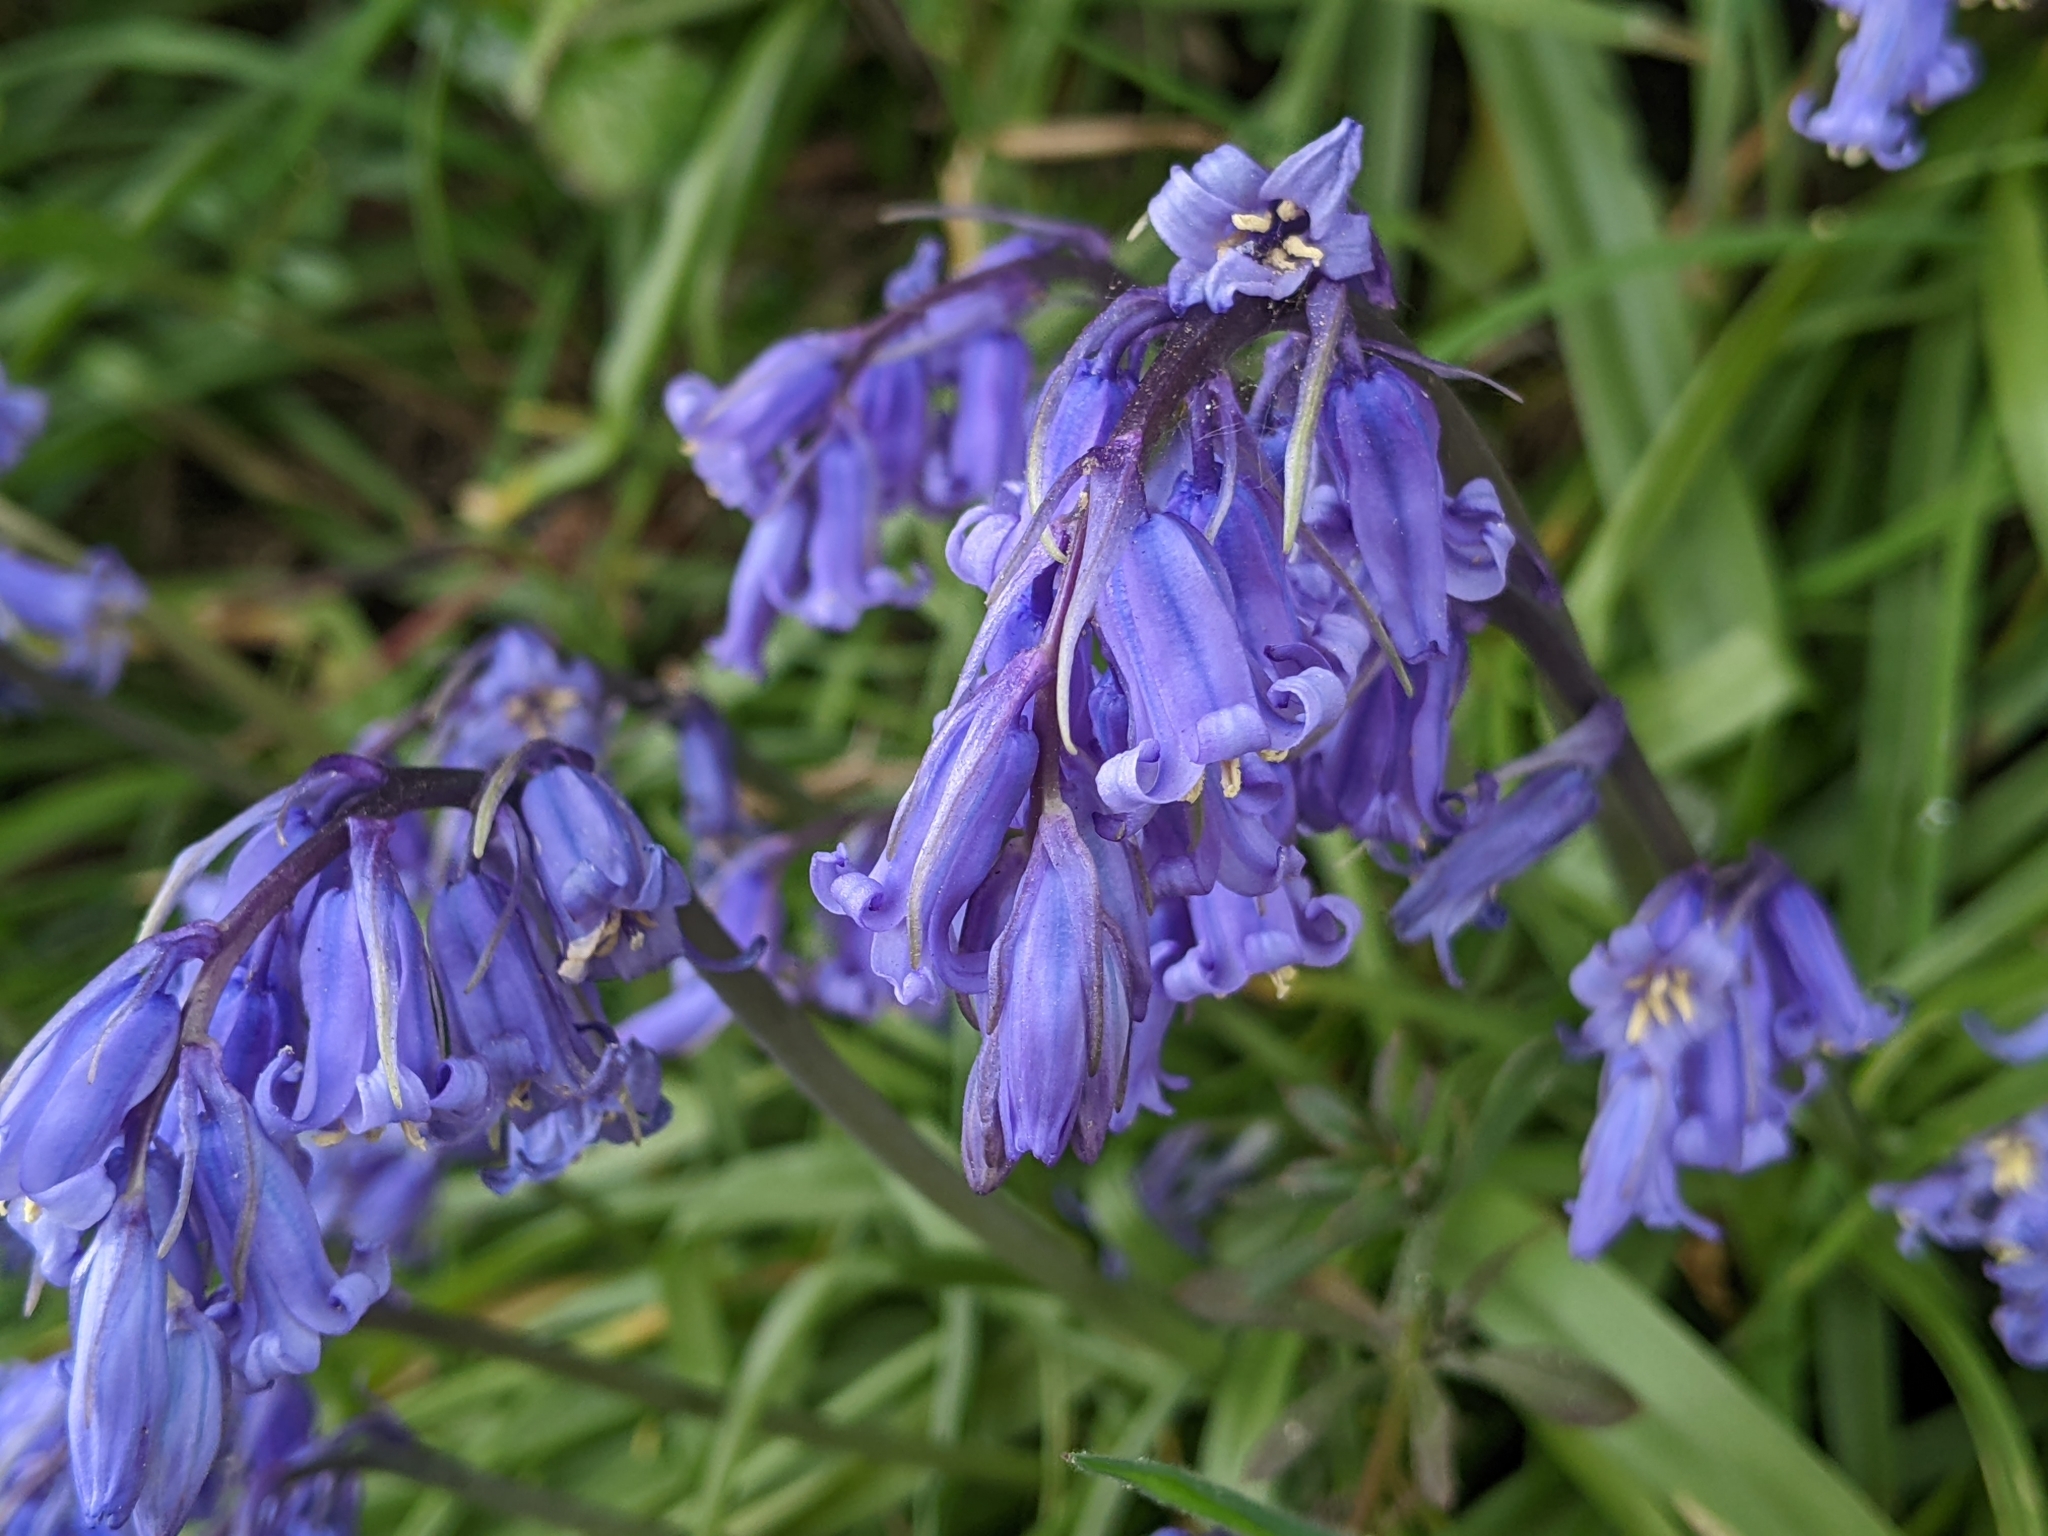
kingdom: Plantae
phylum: Tracheophyta
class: Liliopsida
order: Asparagales
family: Asparagaceae
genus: Hyacinthoides
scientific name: Hyacinthoides non-scripta
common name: Bluebell
